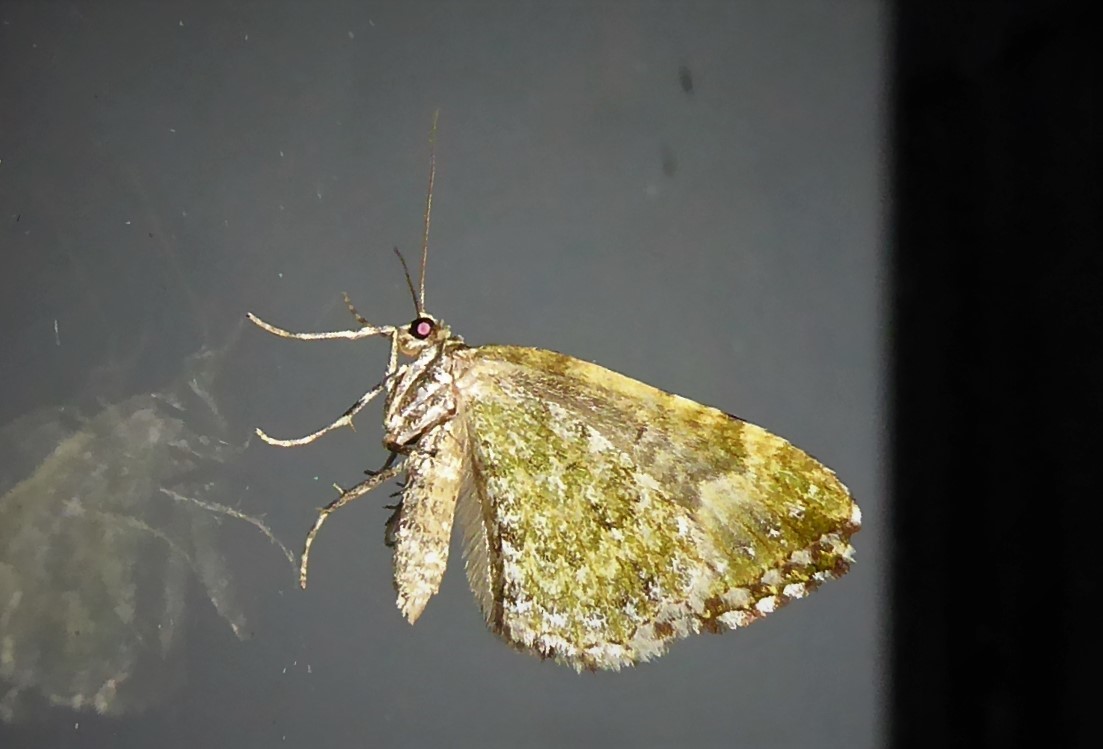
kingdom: Animalia
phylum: Arthropoda
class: Insecta
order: Lepidoptera
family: Geometridae
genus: Asaphodes
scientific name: Asaphodes beata
